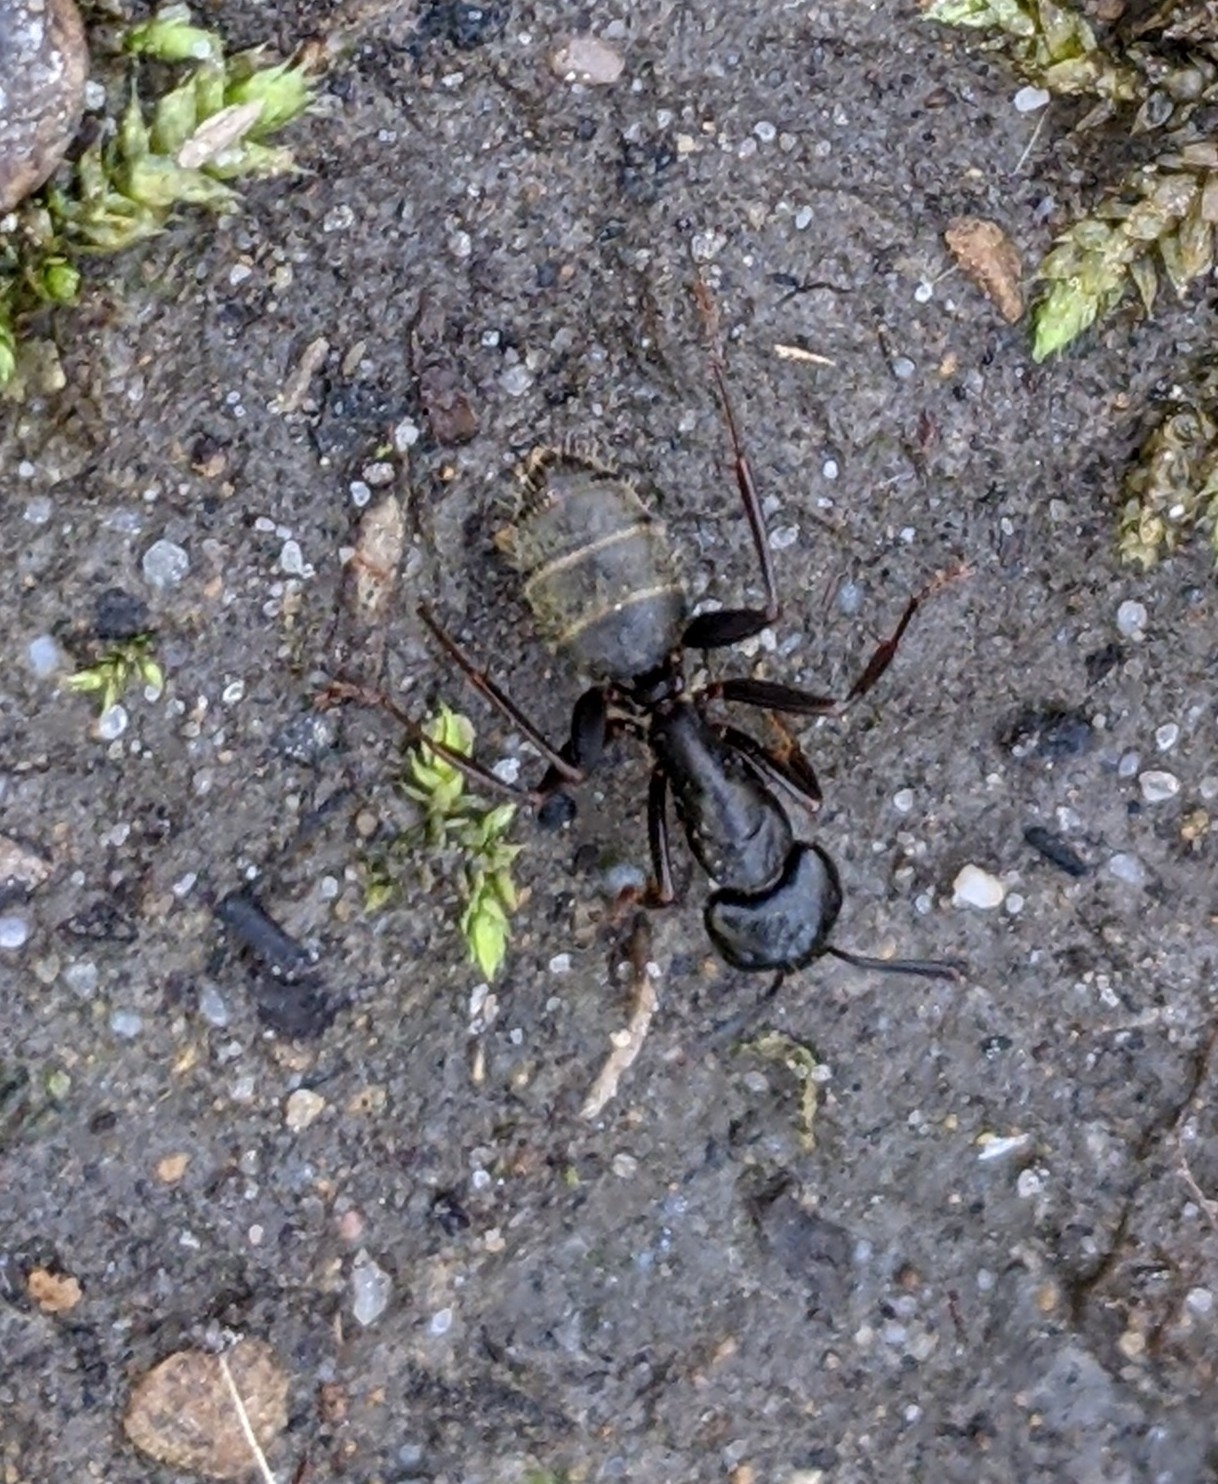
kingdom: Animalia
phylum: Arthropoda
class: Insecta
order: Hymenoptera
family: Formicidae
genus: Camponotus
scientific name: Camponotus pennsylvanicus
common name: Black carpenter ant
